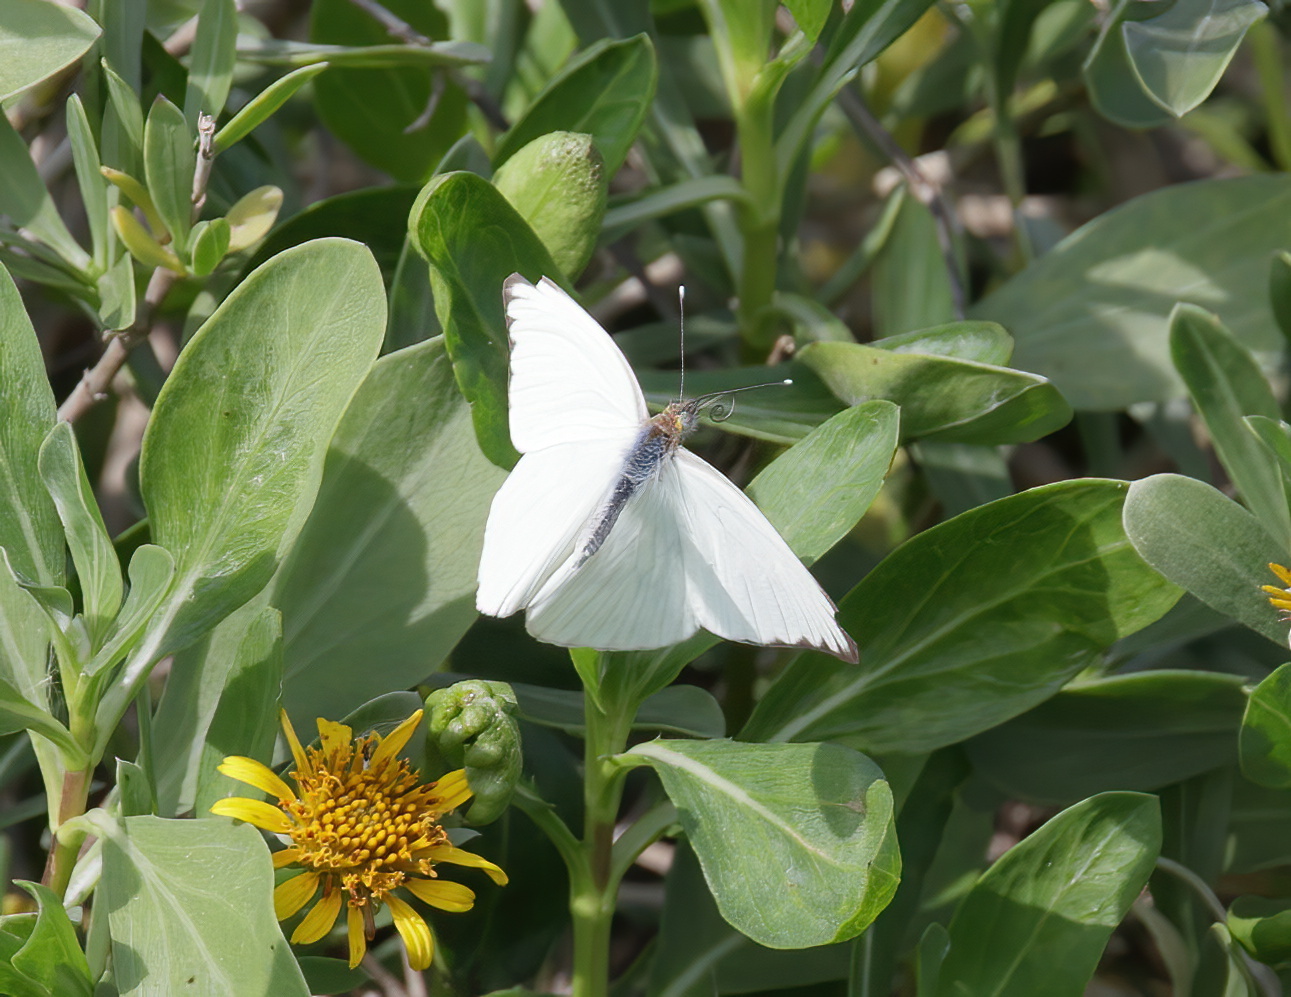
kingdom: Animalia
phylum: Arthropoda
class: Insecta
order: Lepidoptera
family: Pieridae
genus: Ascia
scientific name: Ascia monuste
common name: Great southern white
